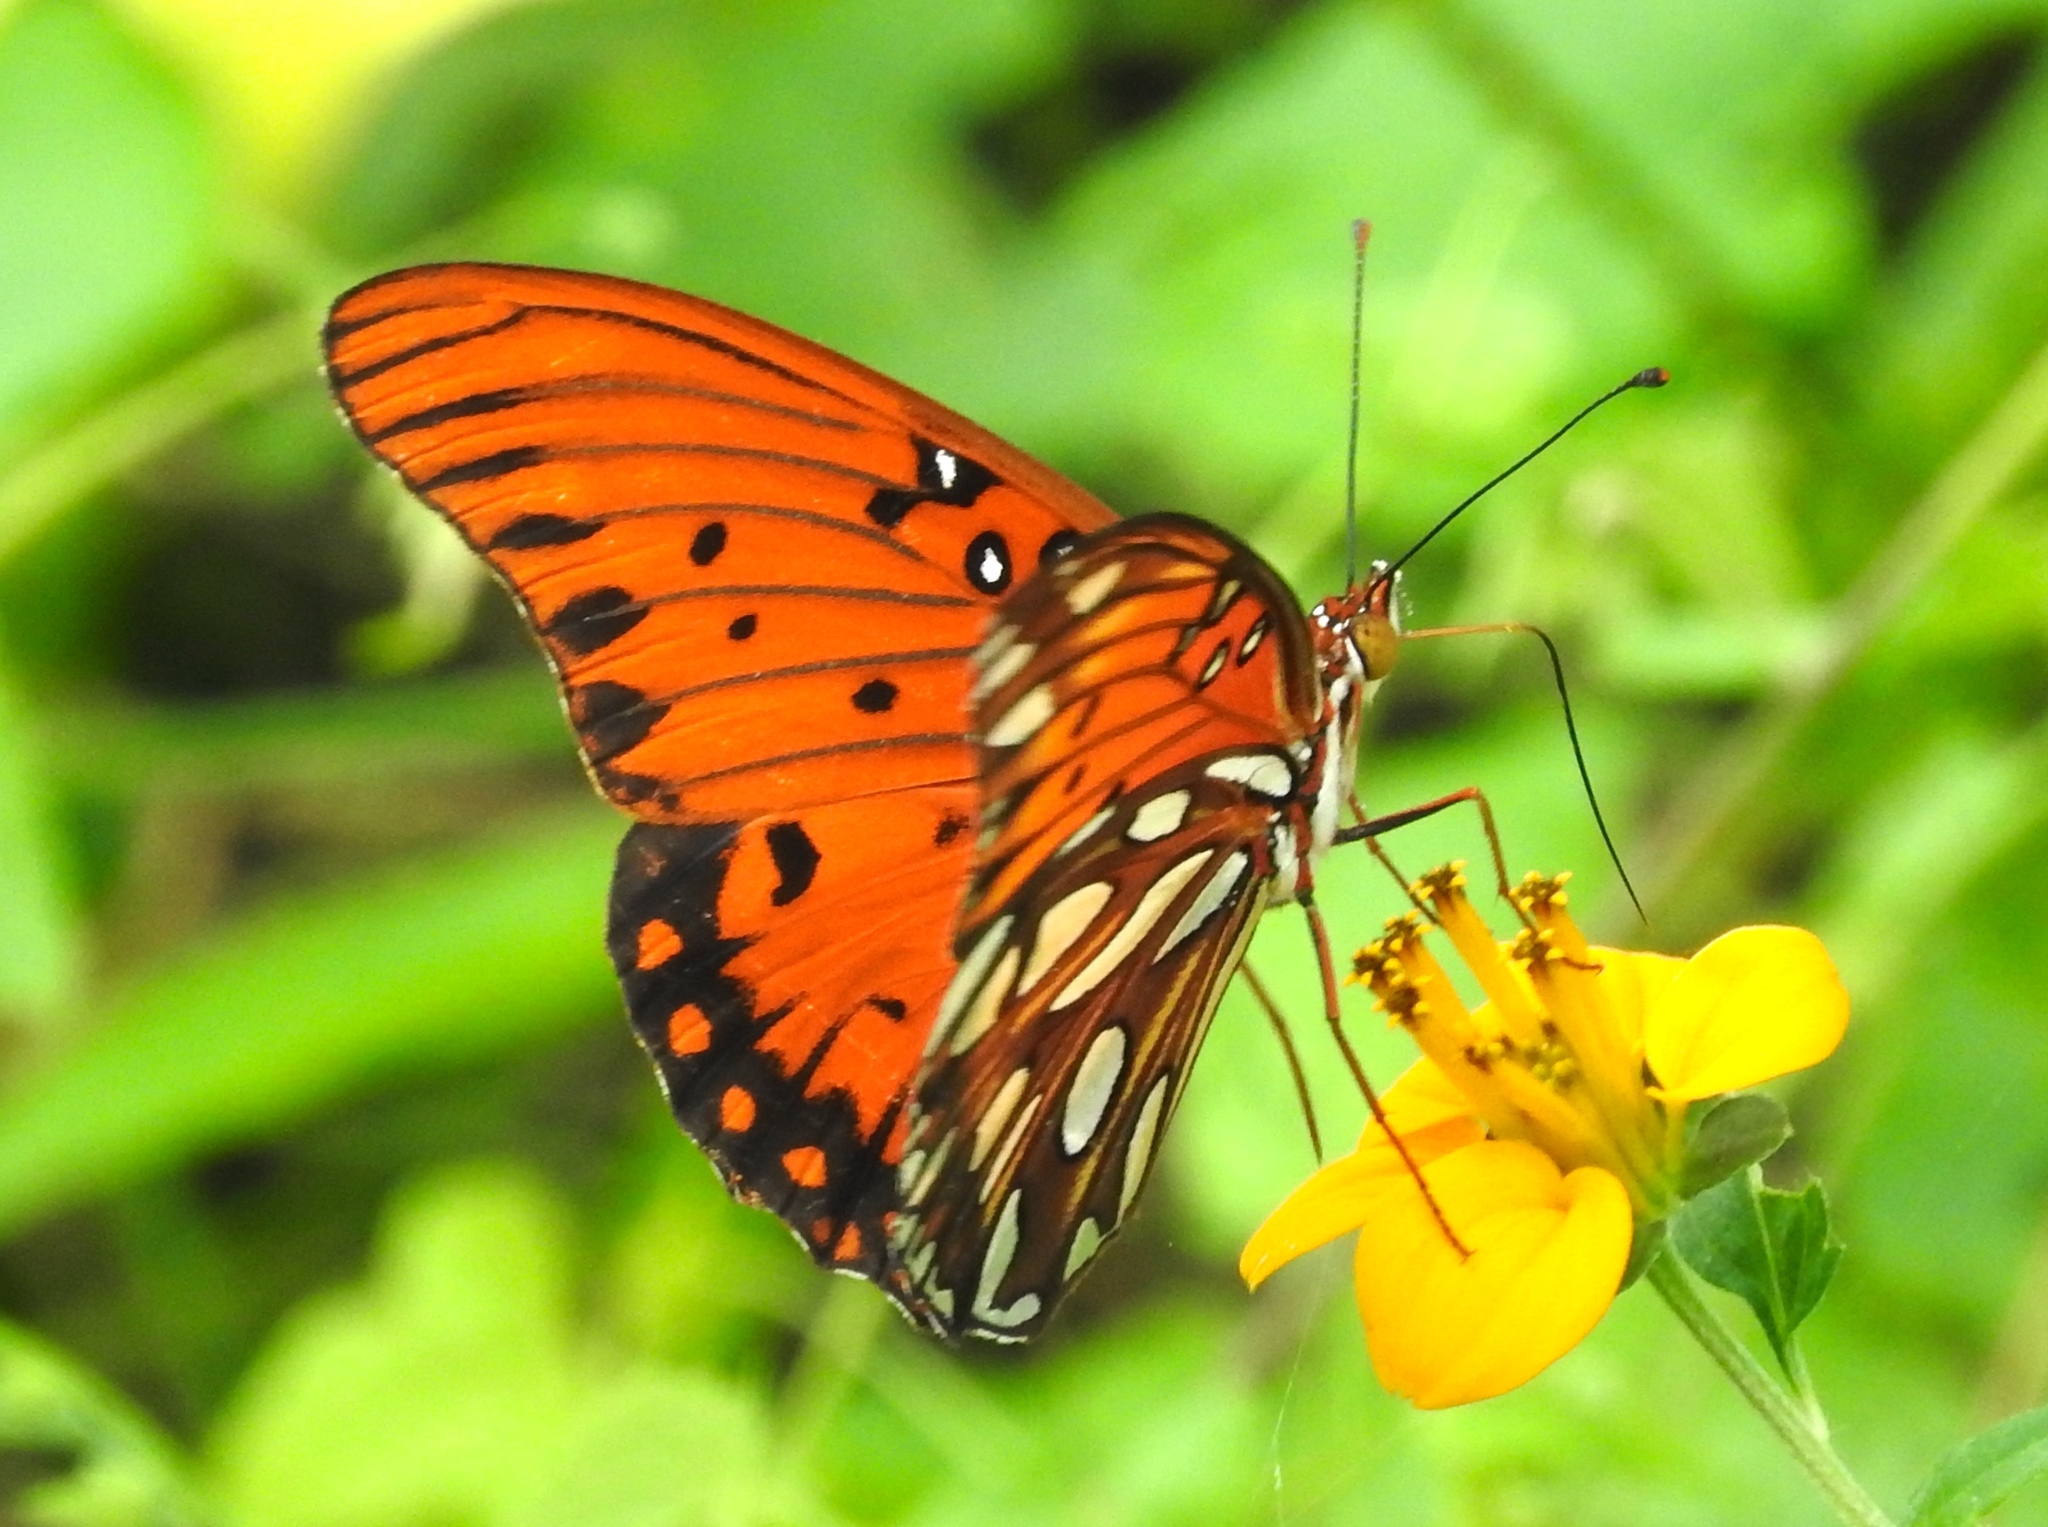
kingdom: Animalia
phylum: Arthropoda
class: Insecta
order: Lepidoptera
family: Nymphalidae
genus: Dione
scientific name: Dione vanillae
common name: Gulf fritillary
